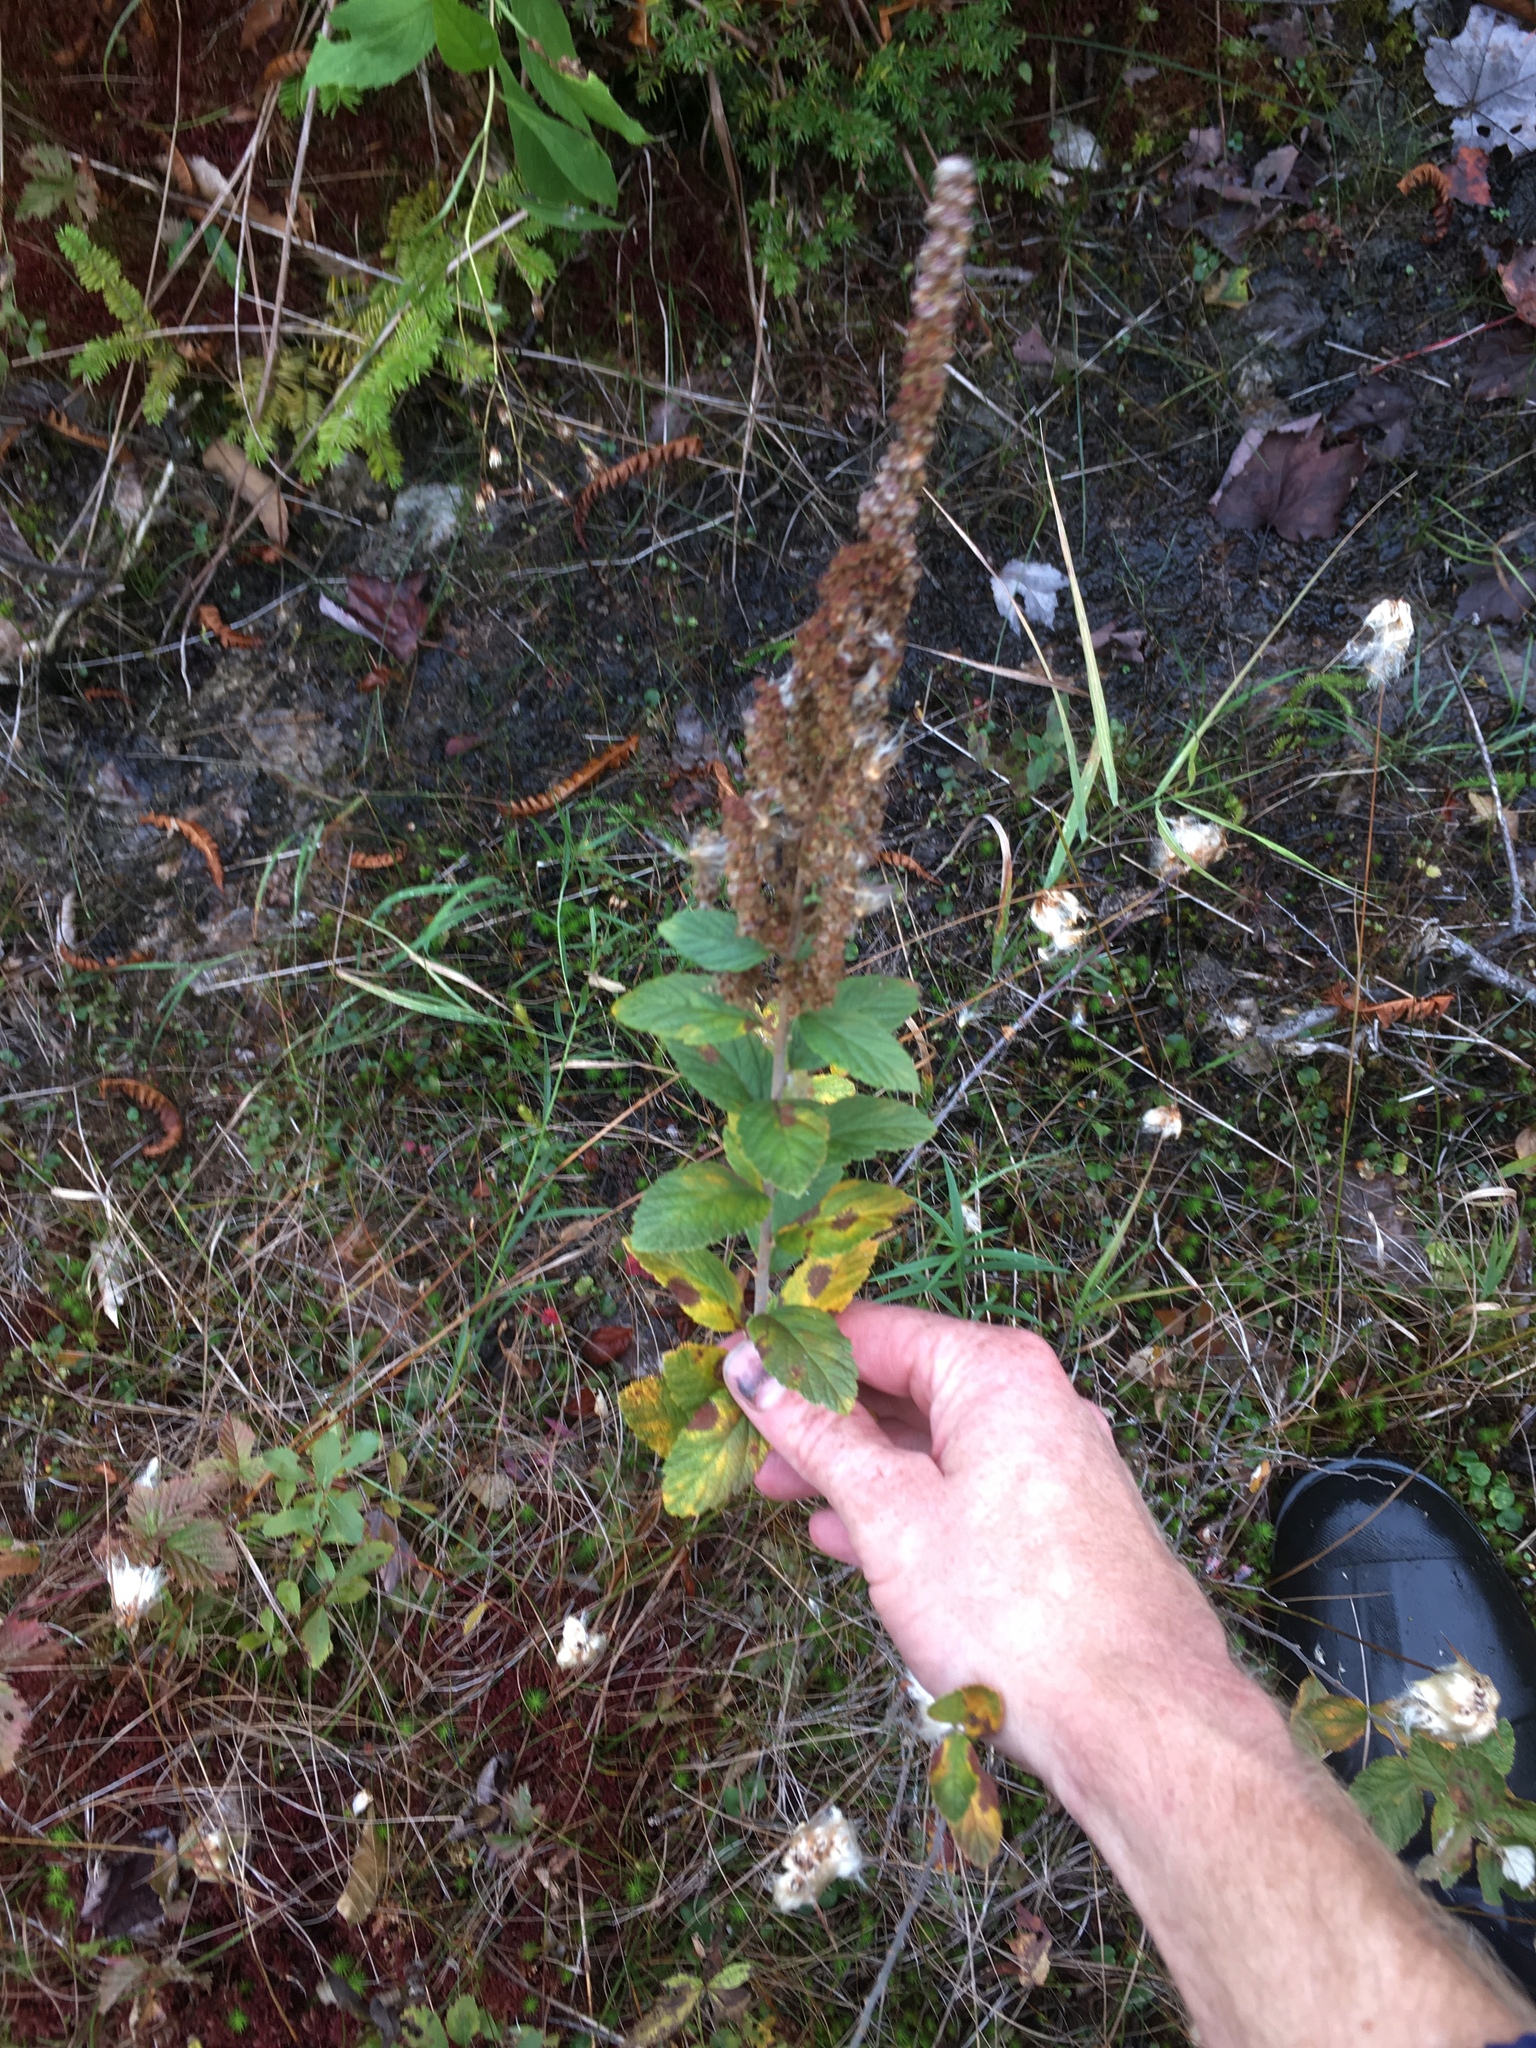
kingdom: Plantae
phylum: Tracheophyta
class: Magnoliopsida
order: Rosales
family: Rosaceae
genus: Spiraea
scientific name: Spiraea tomentosa
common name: Hardhack
